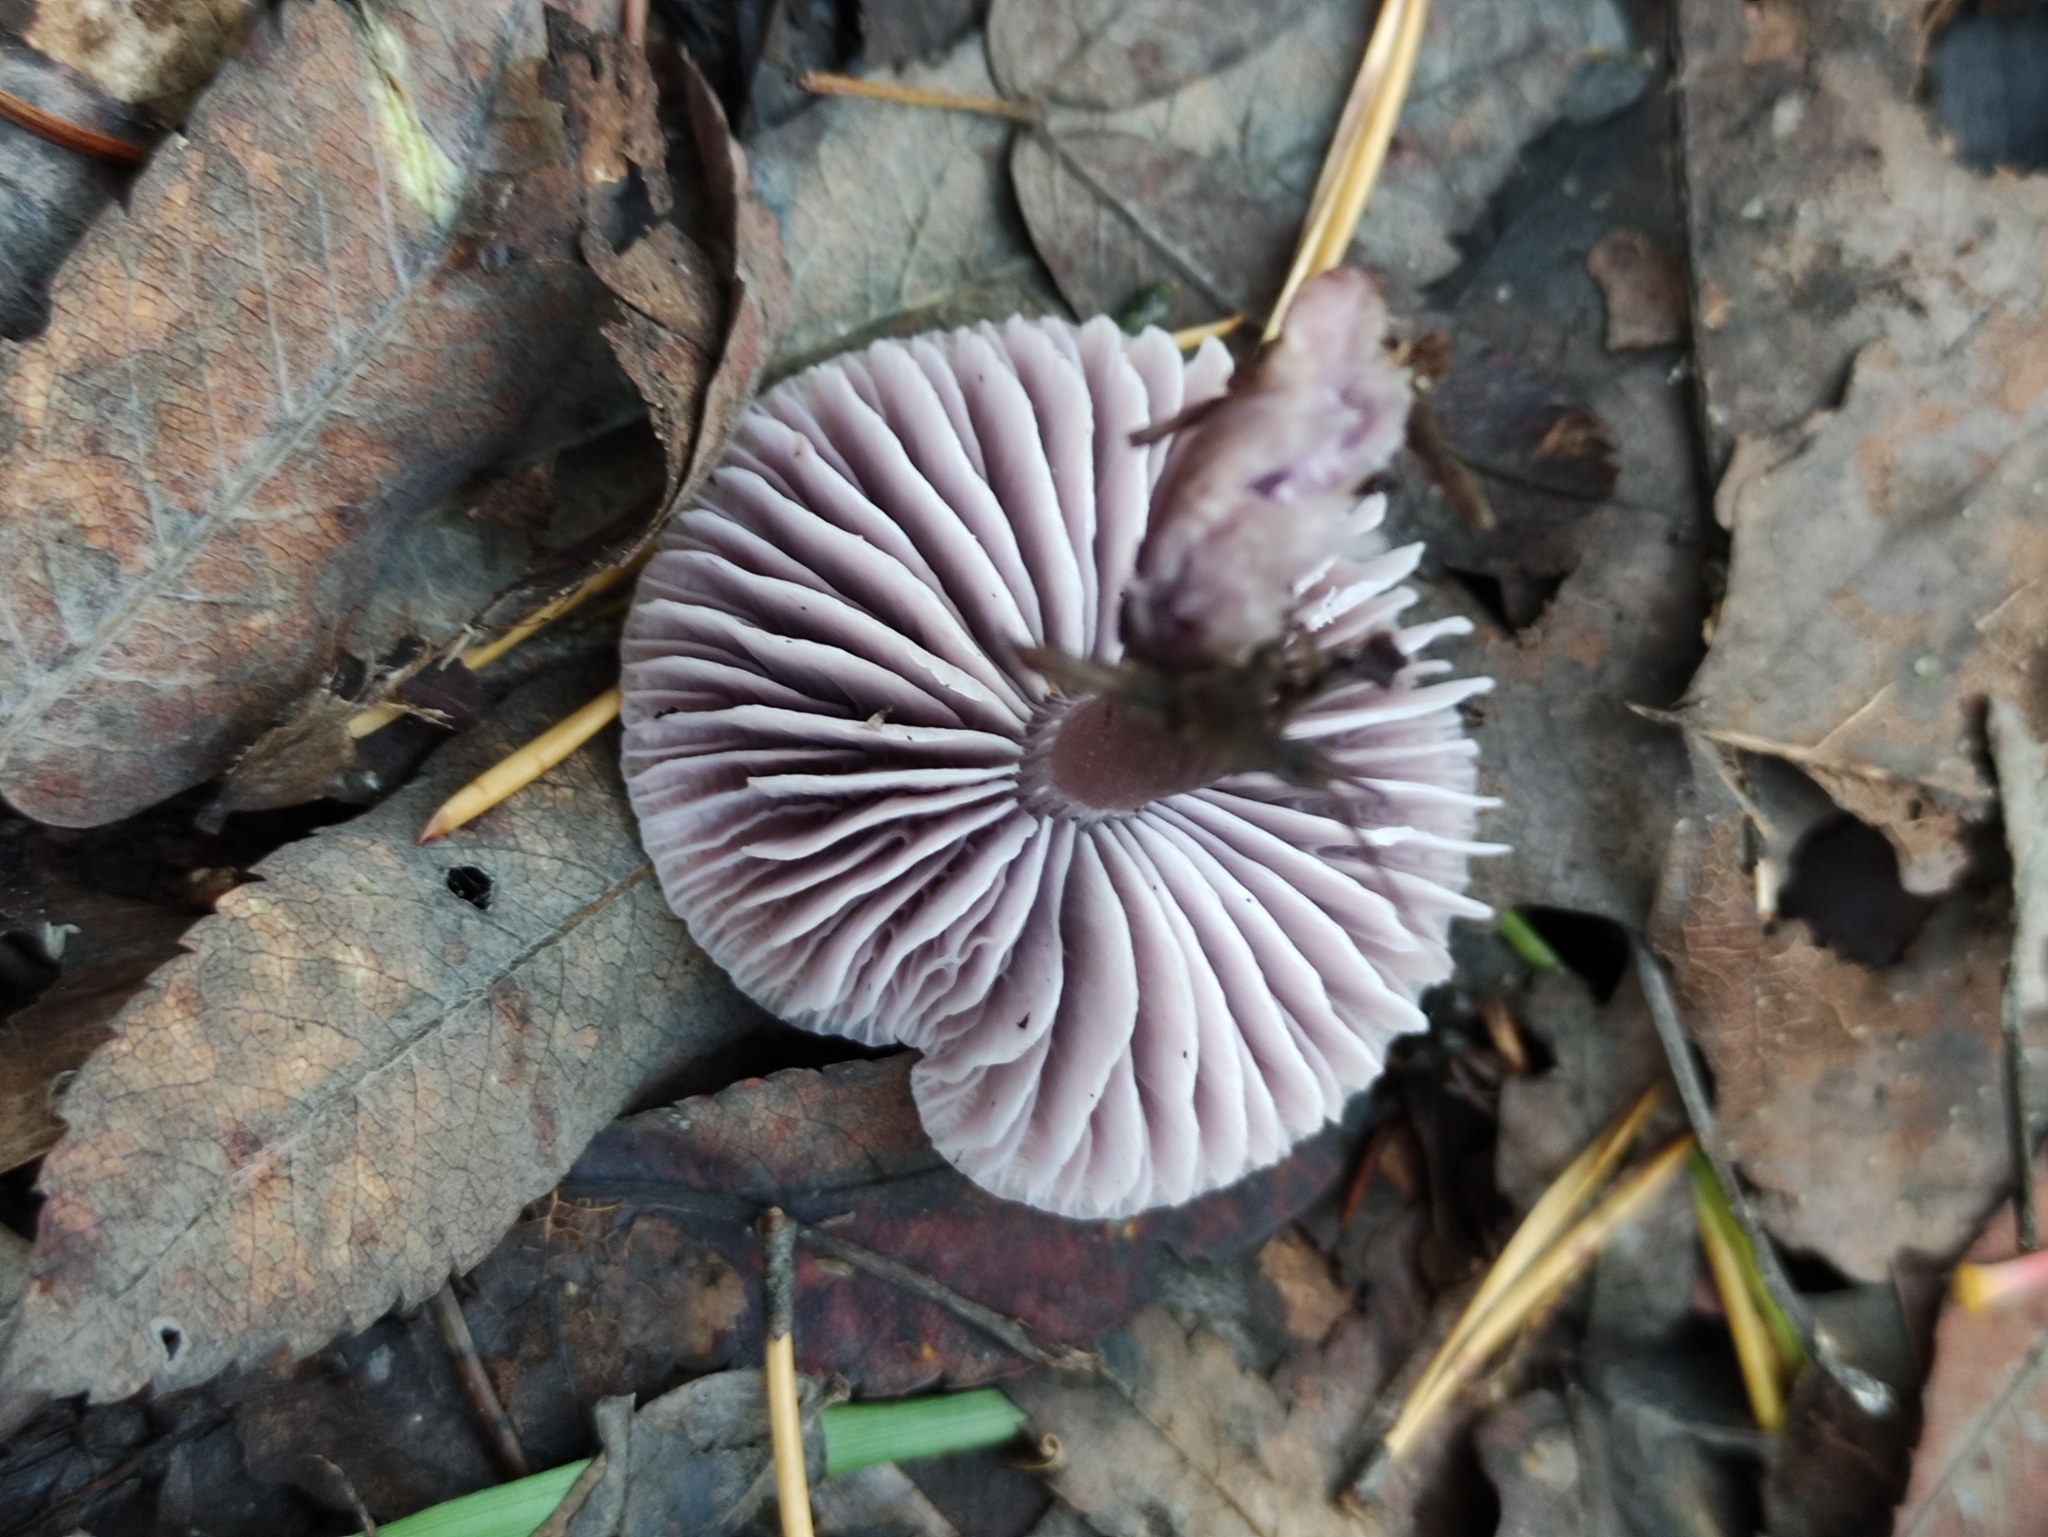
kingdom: Fungi
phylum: Basidiomycota
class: Agaricomycetes
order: Agaricales
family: Mycenaceae
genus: Mycena
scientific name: Mycena pura
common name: Lilac bonnet
